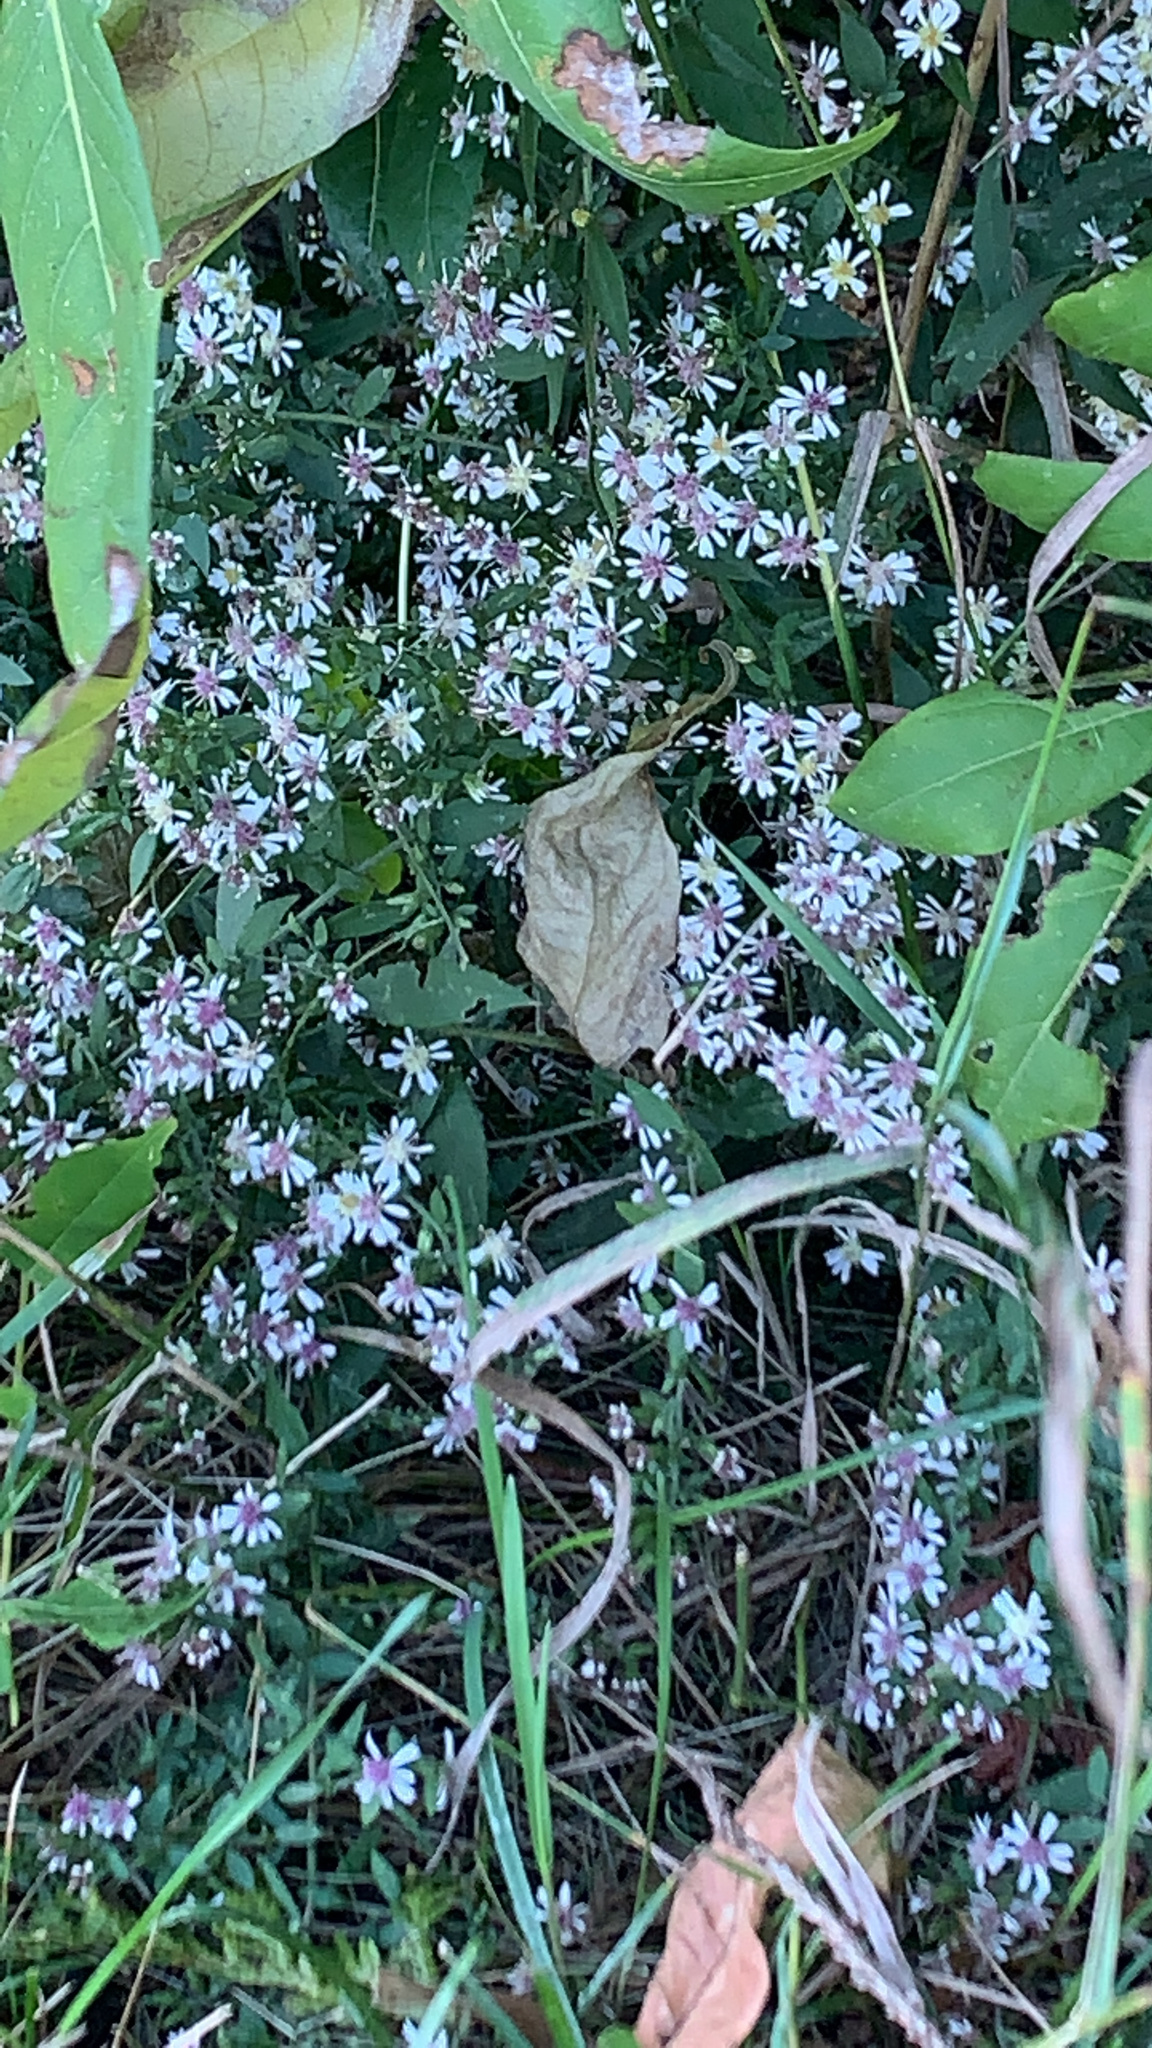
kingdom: Plantae
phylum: Tracheophyta
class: Magnoliopsida
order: Asterales
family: Asteraceae
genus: Symphyotrichum
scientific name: Symphyotrichum lateriflorum
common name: Calico aster
